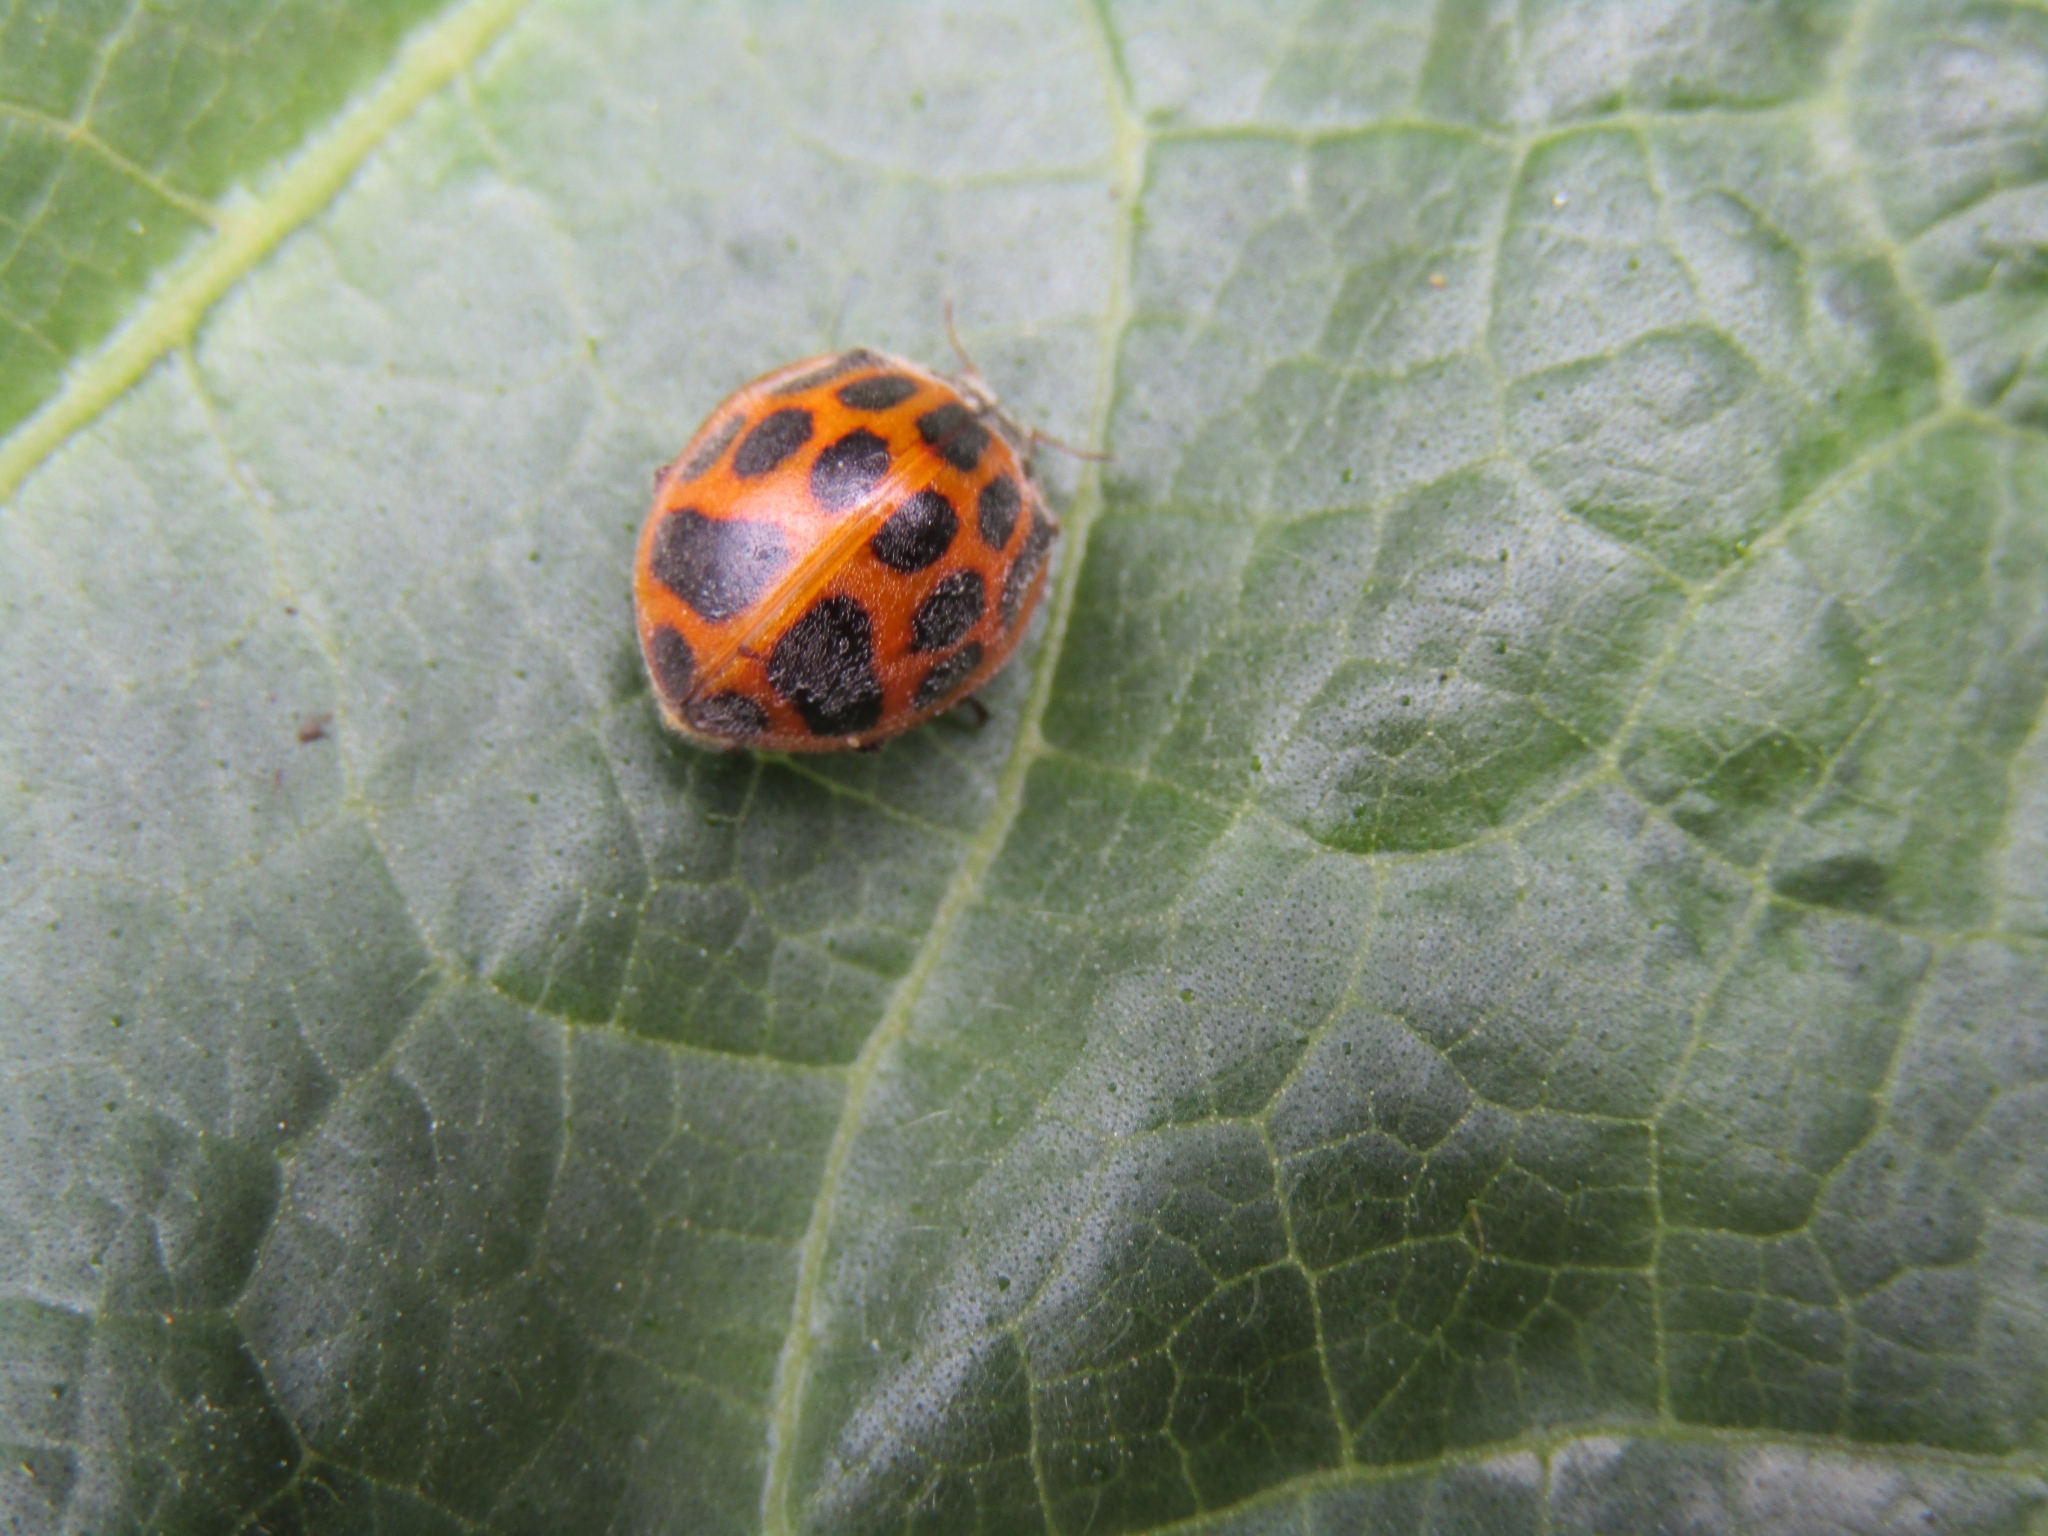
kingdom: Animalia
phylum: Arthropoda
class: Insecta
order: Coleoptera
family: Coccinellidae
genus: Epilachna
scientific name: Epilachna
